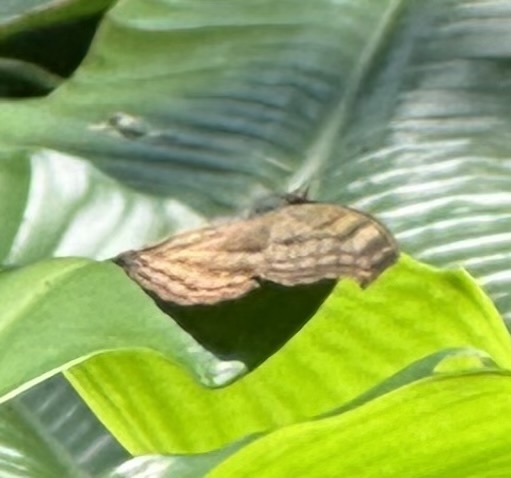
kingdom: Animalia
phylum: Arthropoda
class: Insecta
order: Lepidoptera
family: Nymphalidae
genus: Junonia
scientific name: Junonia iphita
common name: Chocolate pansy
